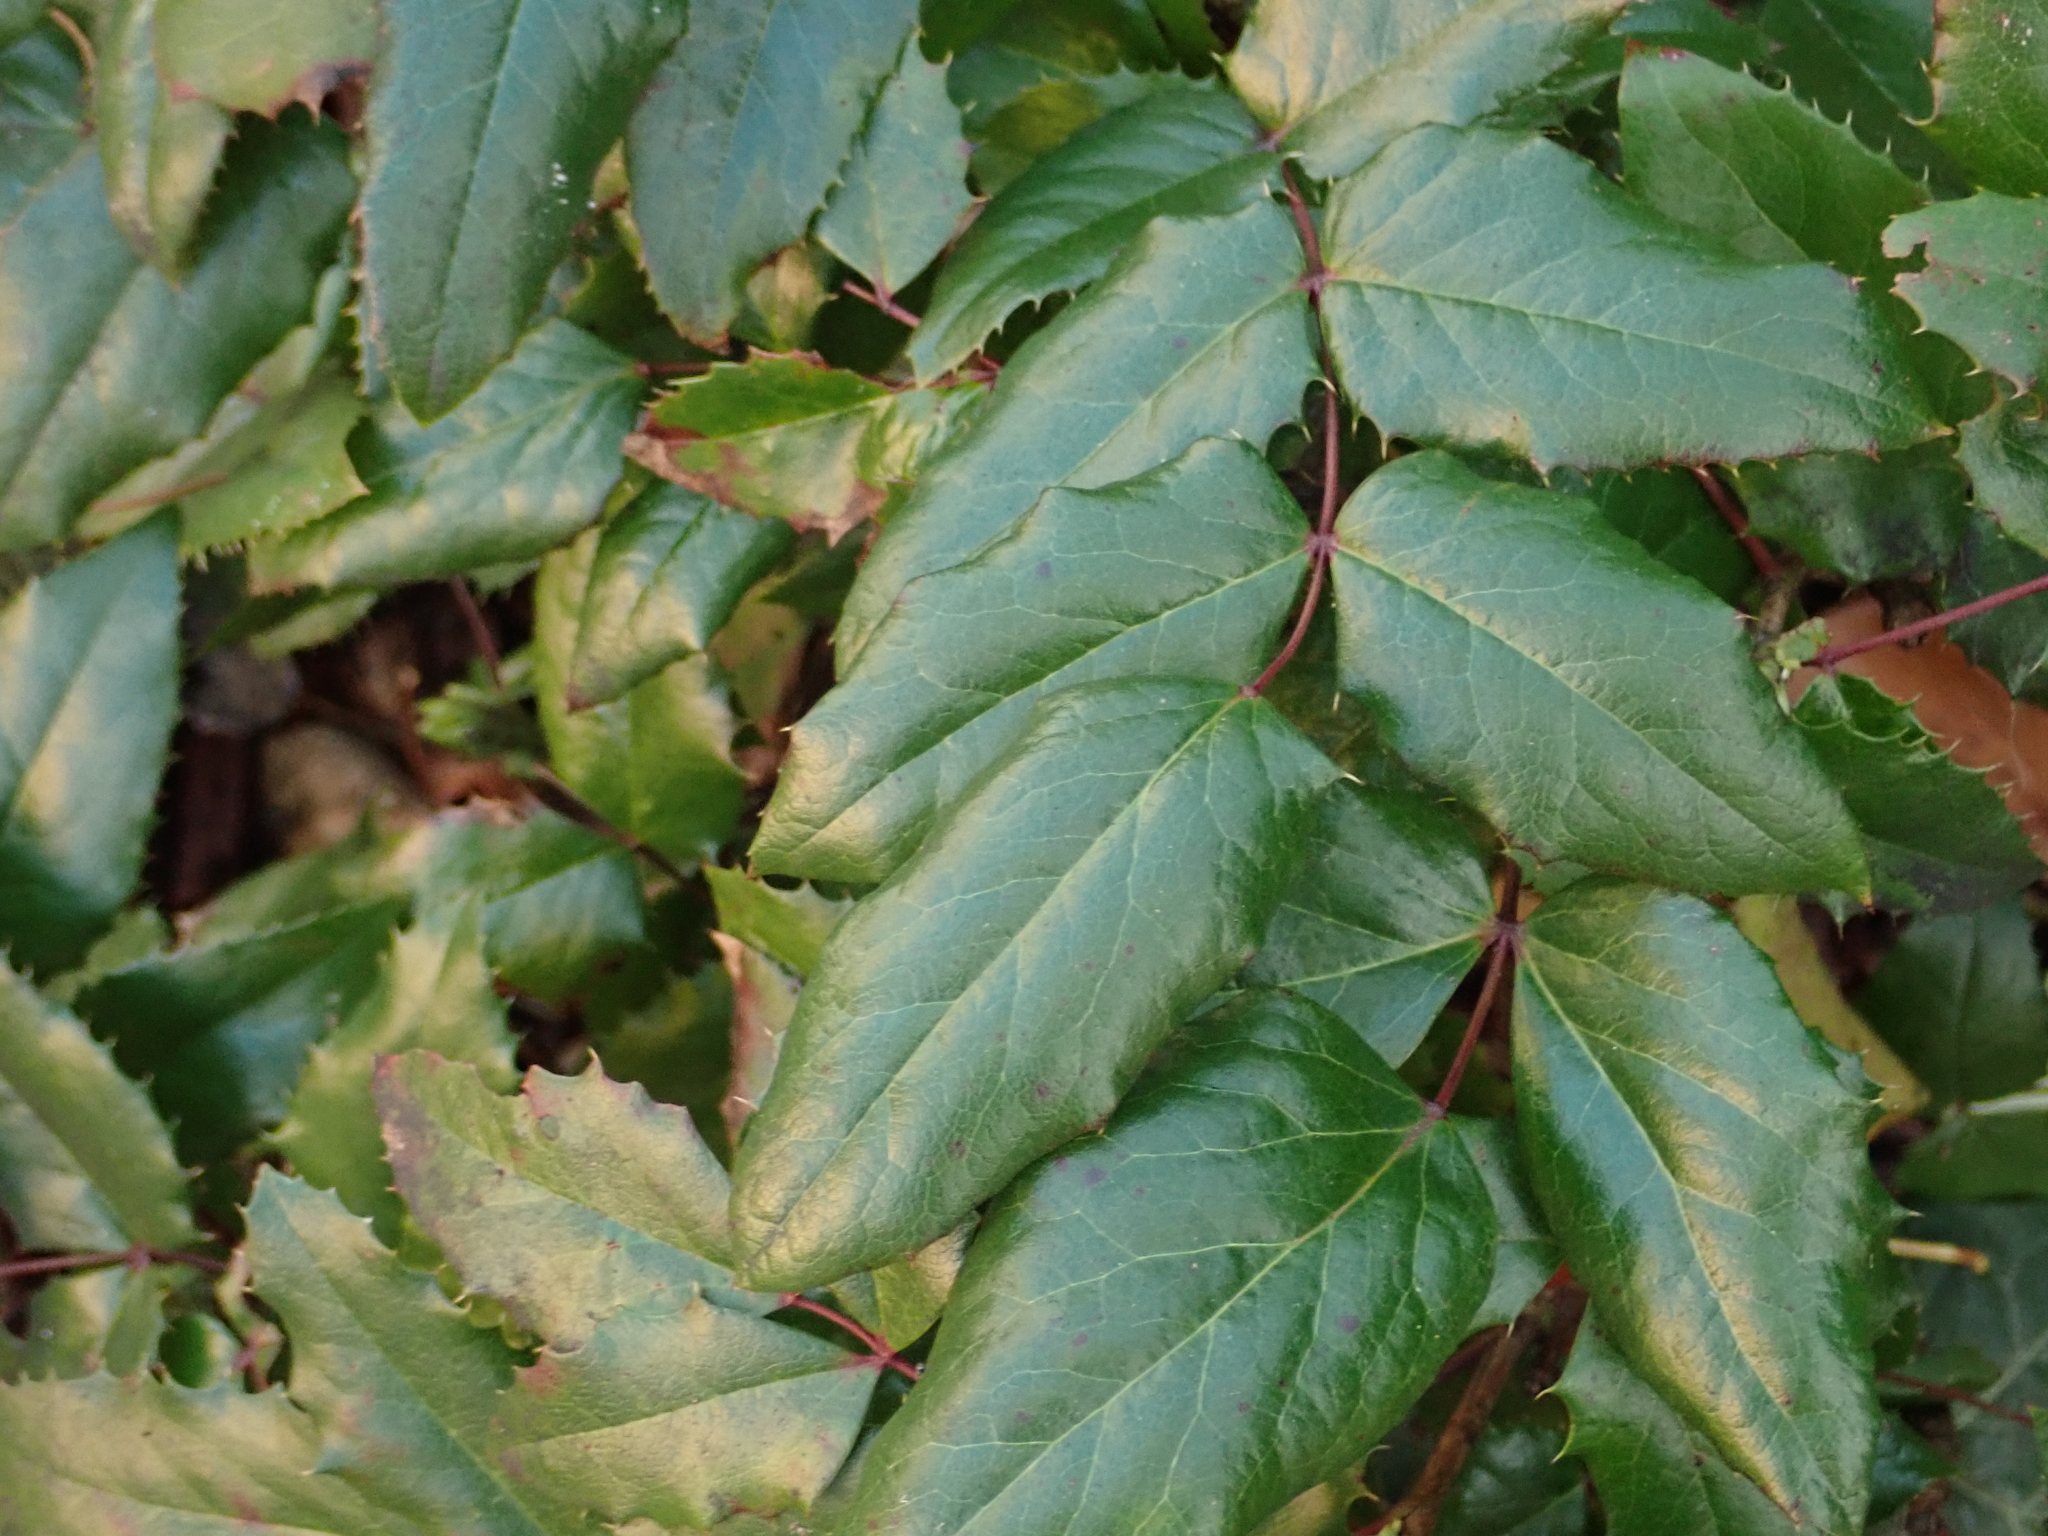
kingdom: Plantae
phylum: Tracheophyta
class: Magnoliopsida
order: Ranunculales
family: Berberidaceae
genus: Mahonia
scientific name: Mahonia aquifolium
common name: Oregon-grape
